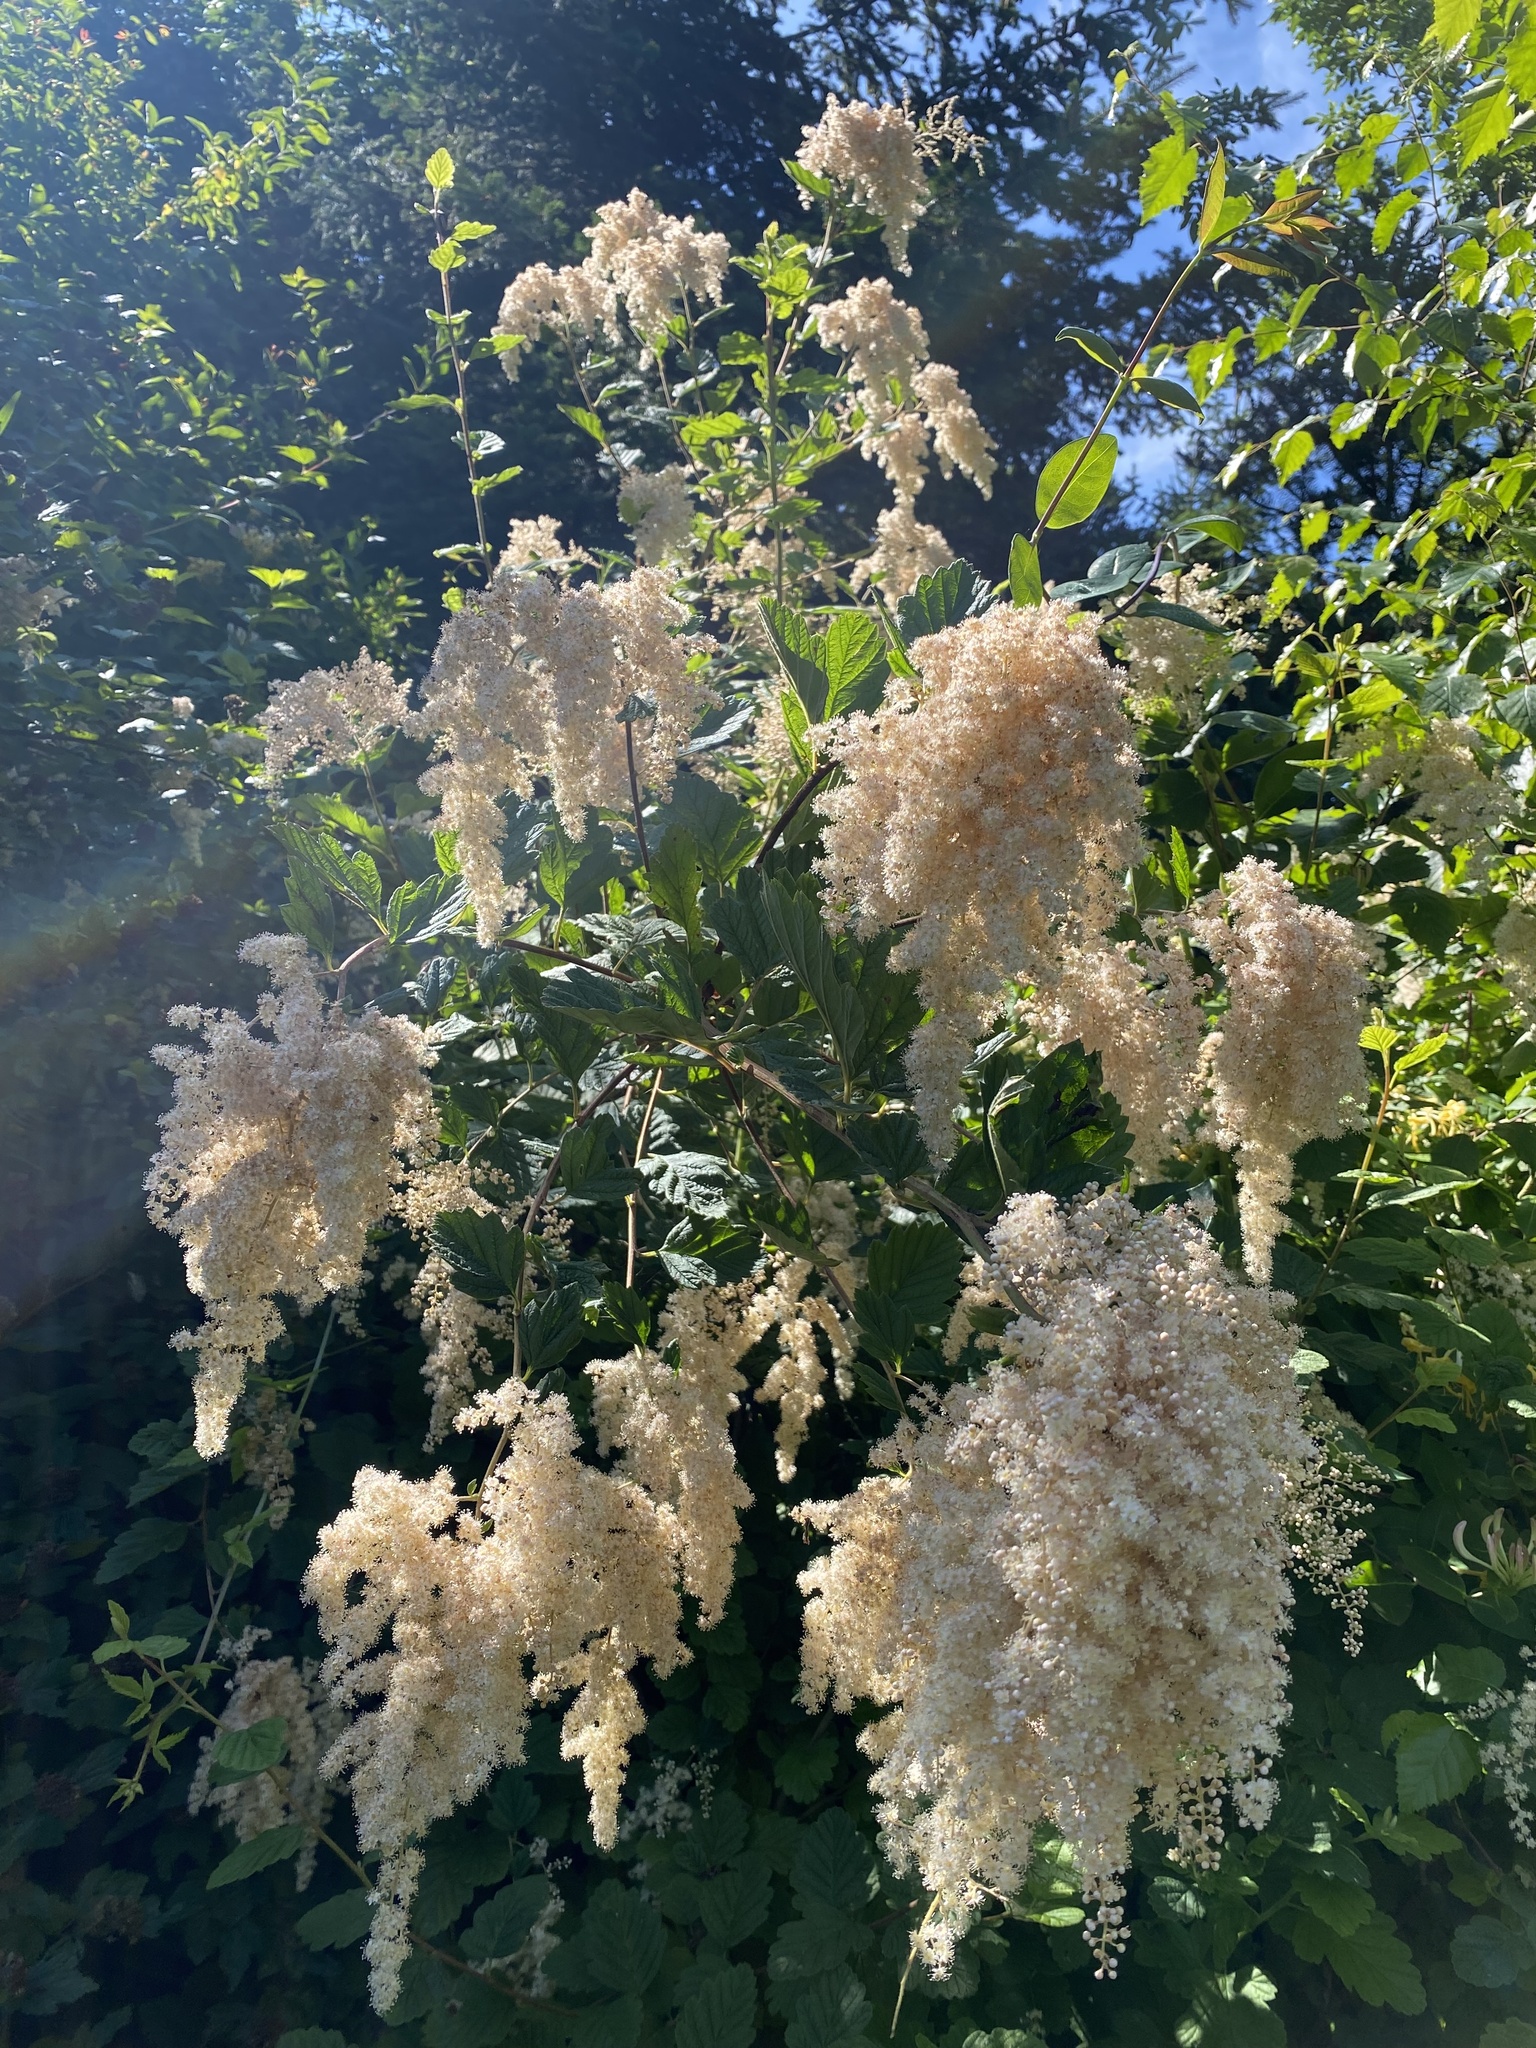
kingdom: Plantae
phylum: Tracheophyta
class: Magnoliopsida
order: Rosales
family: Rosaceae
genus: Holodiscus
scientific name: Holodiscus discolor
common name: Oceanspray
